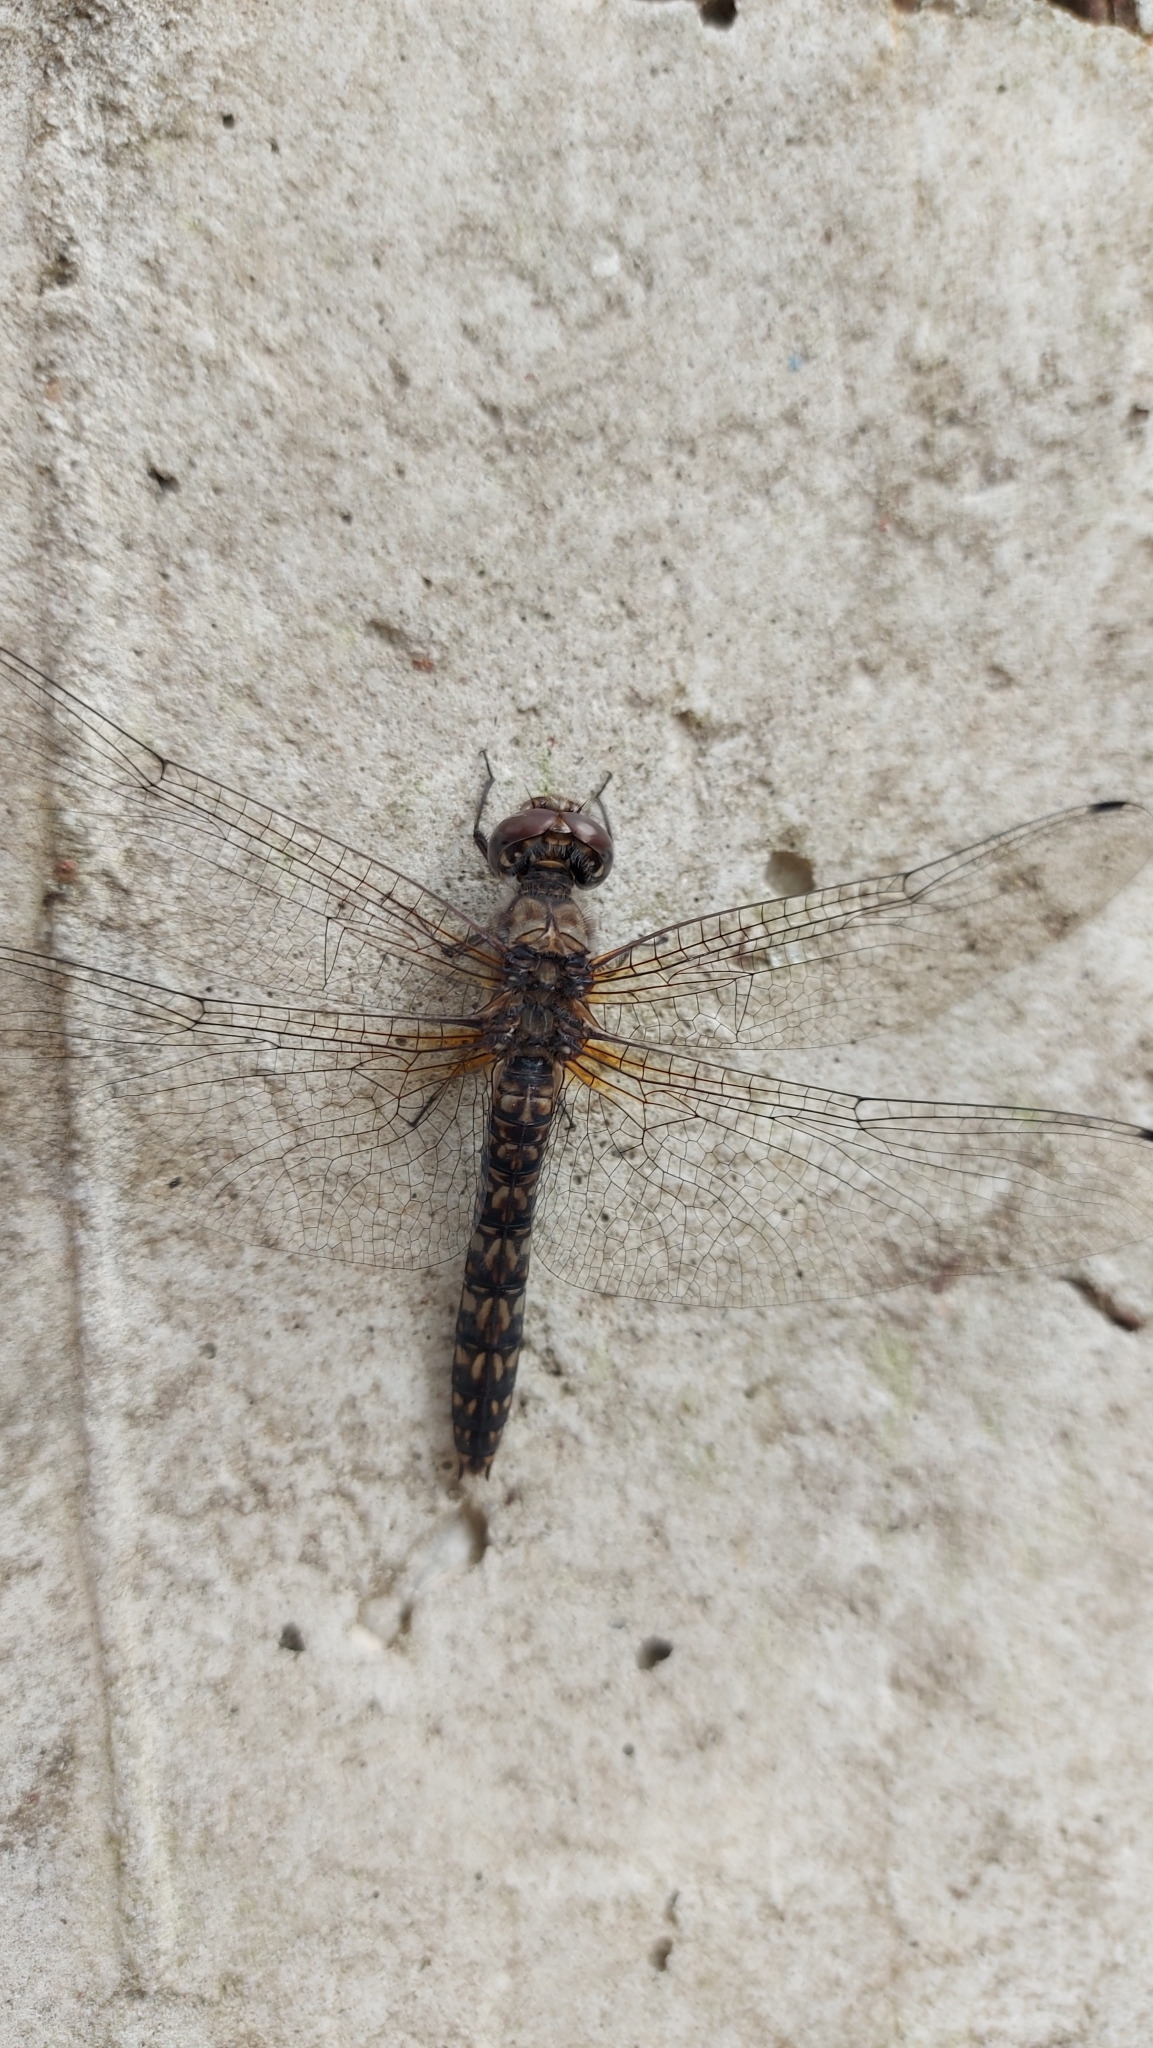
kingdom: Animalia
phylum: Arthropoda
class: Insecta
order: Odonata
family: Libellulidae
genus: Paltothemis
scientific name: Paltothemis lineatipes
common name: Red rock skimmer
